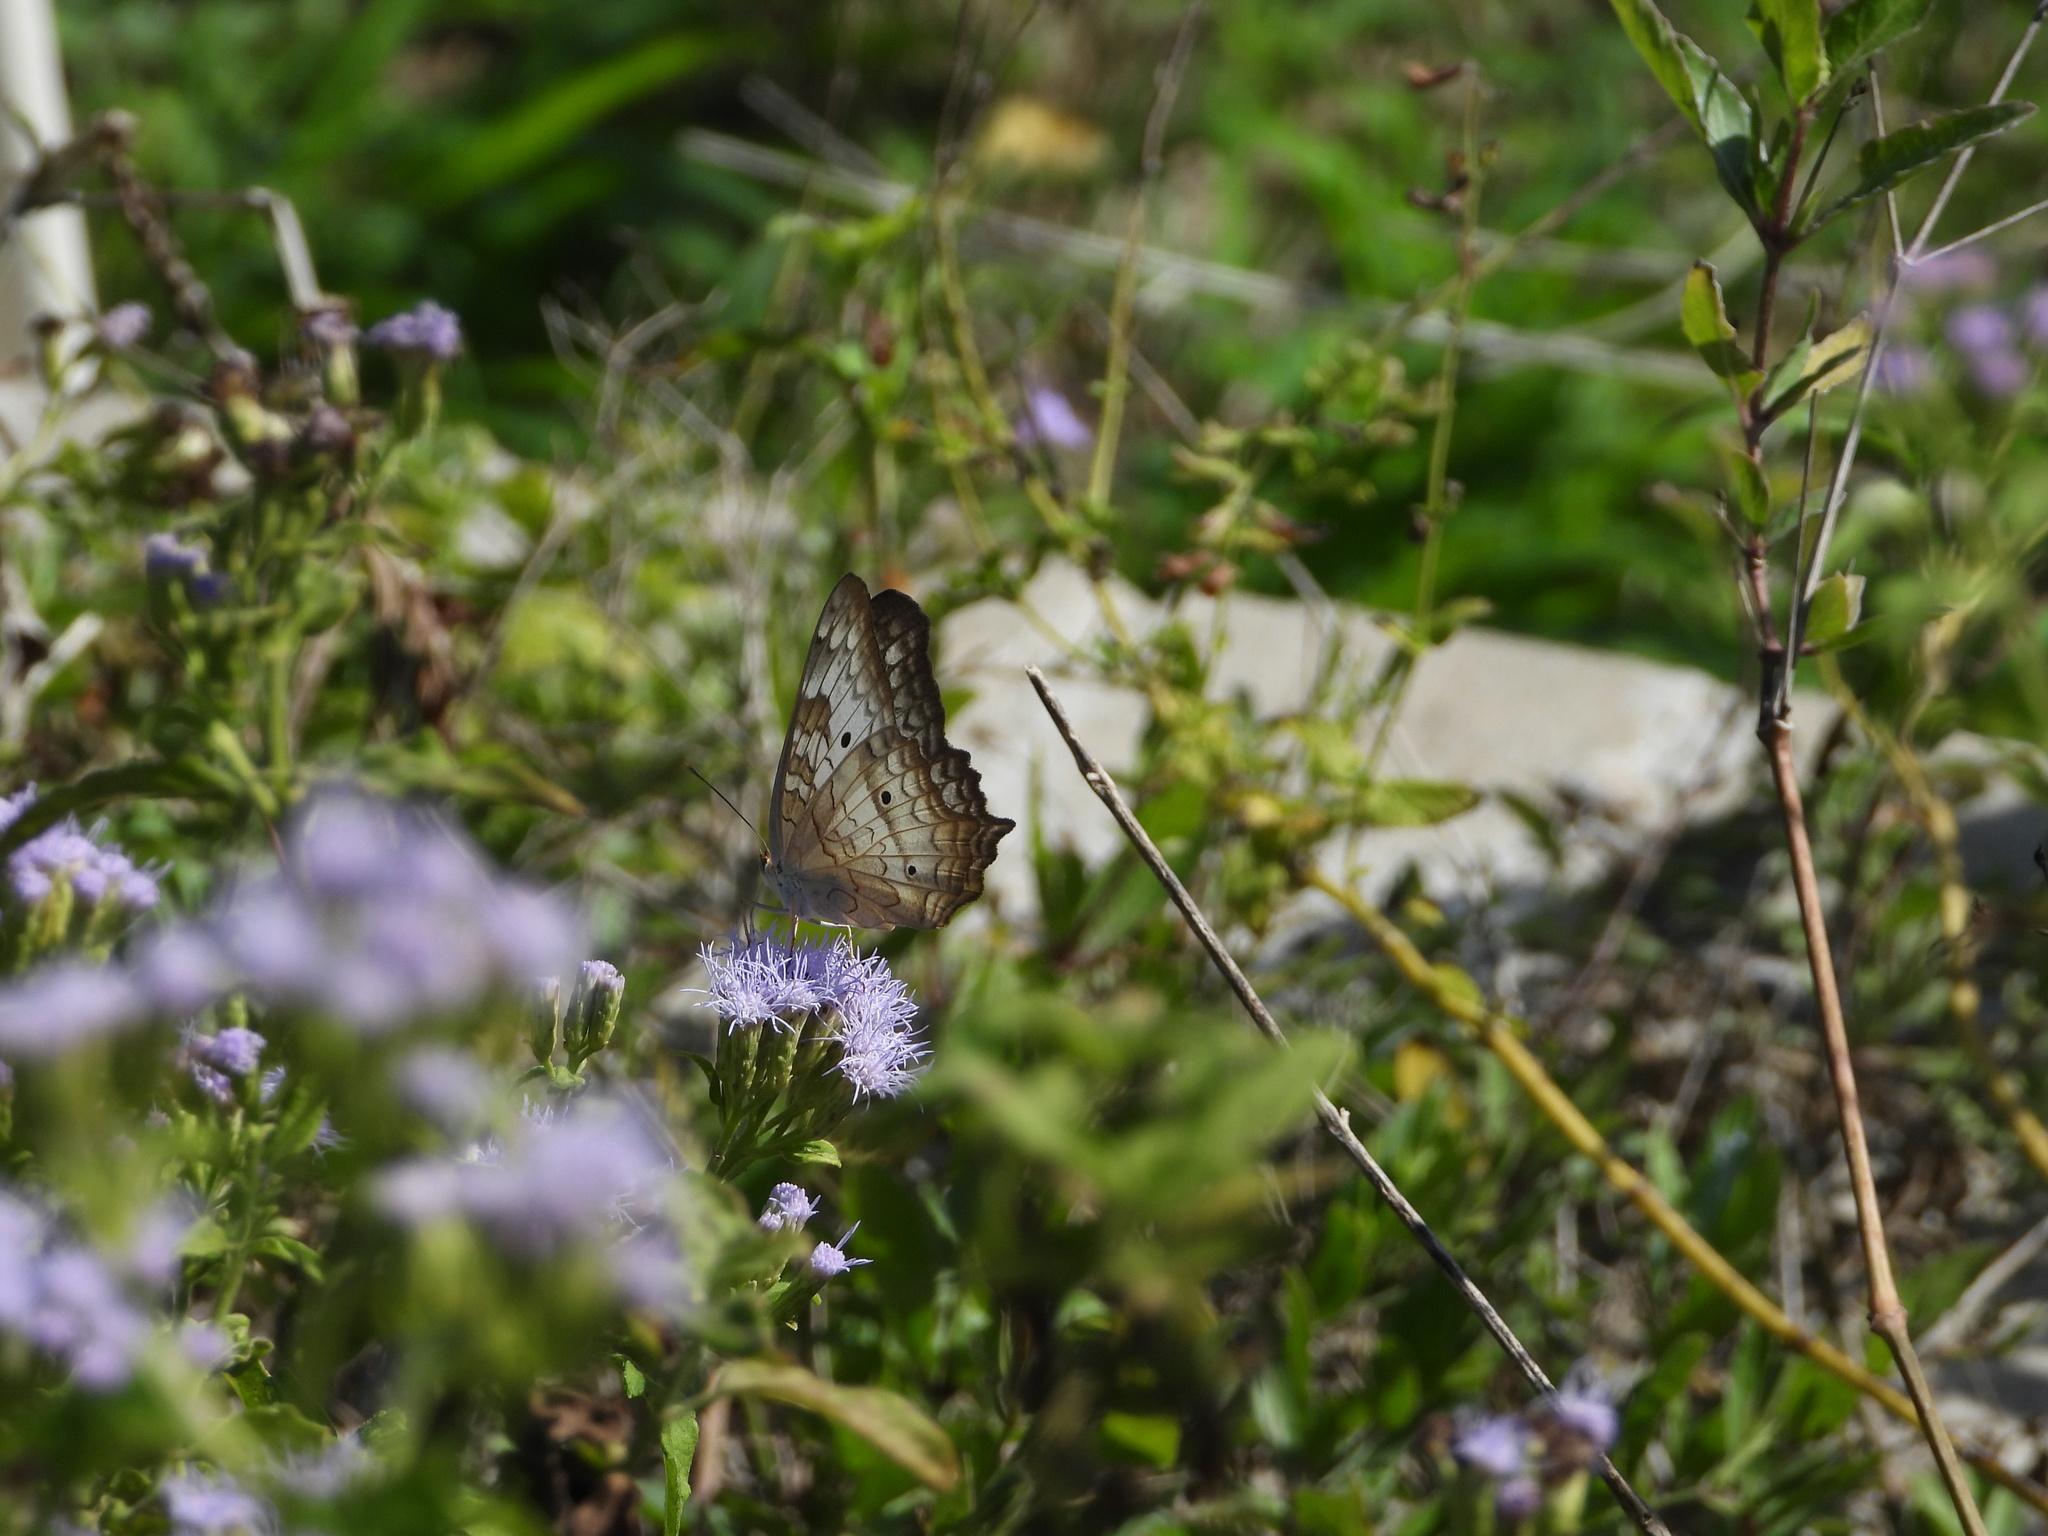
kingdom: Animalia
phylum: Arthropoda
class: Insecta
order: Lepidoptera
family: Nymphalidae
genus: Anartia
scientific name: Anartia jatrophae
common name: White peacock
